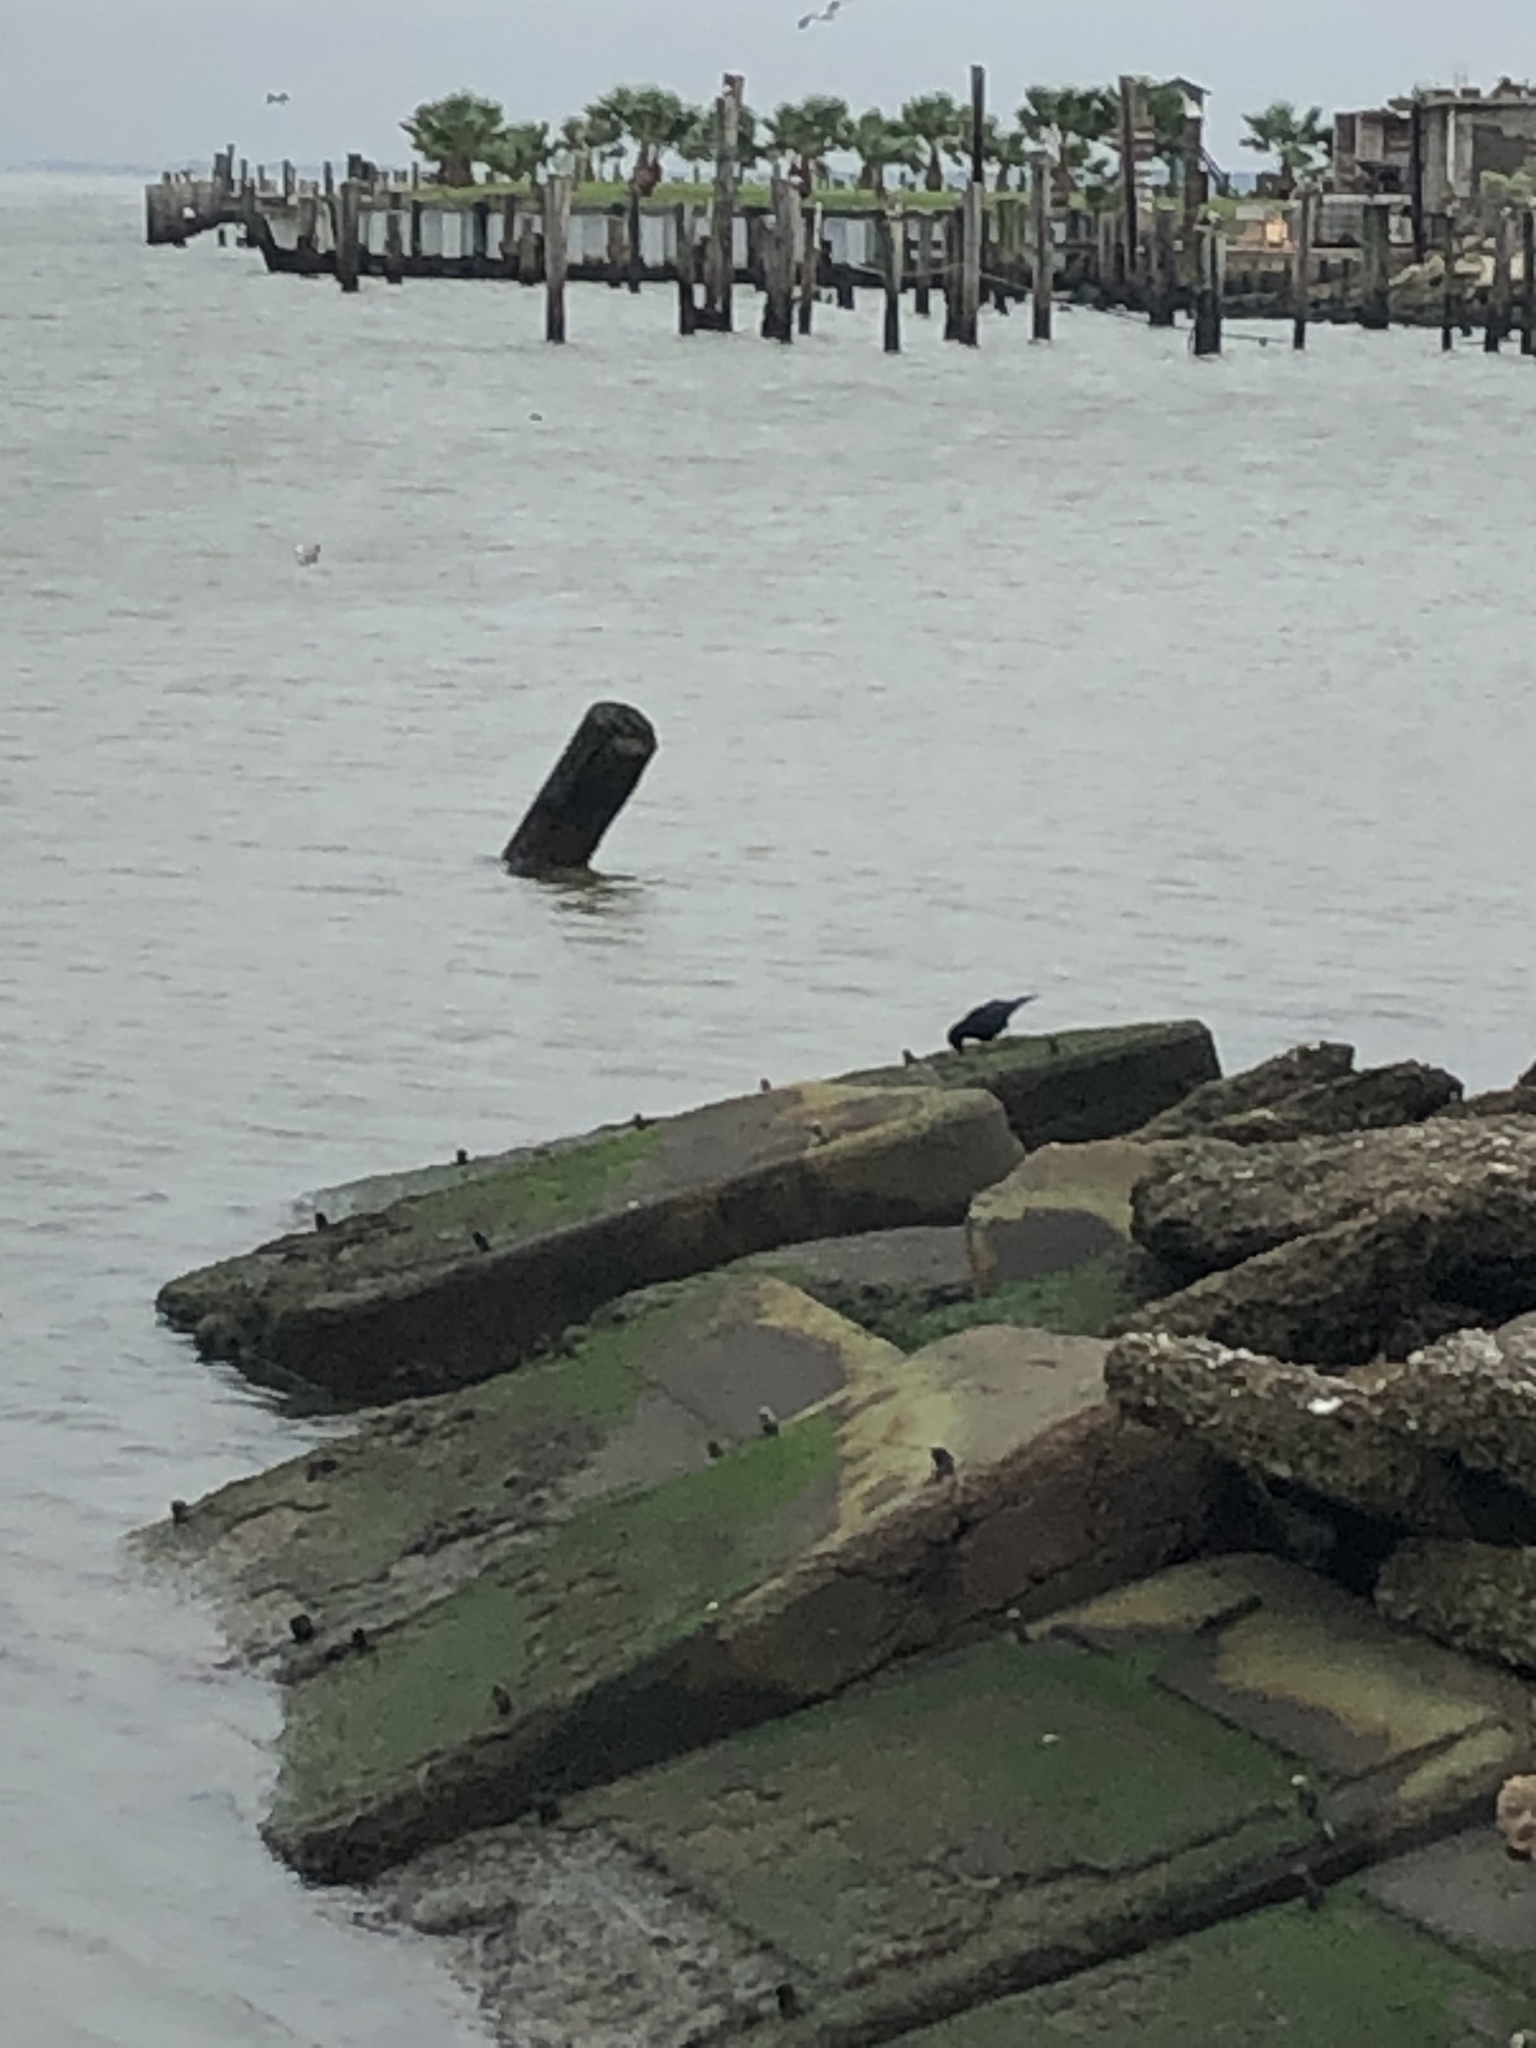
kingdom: Animalia
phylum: Chordata
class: Aves
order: Passeriformes
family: Corvidae
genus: Corvus
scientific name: Corvus brachyrhynchos
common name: American crow
